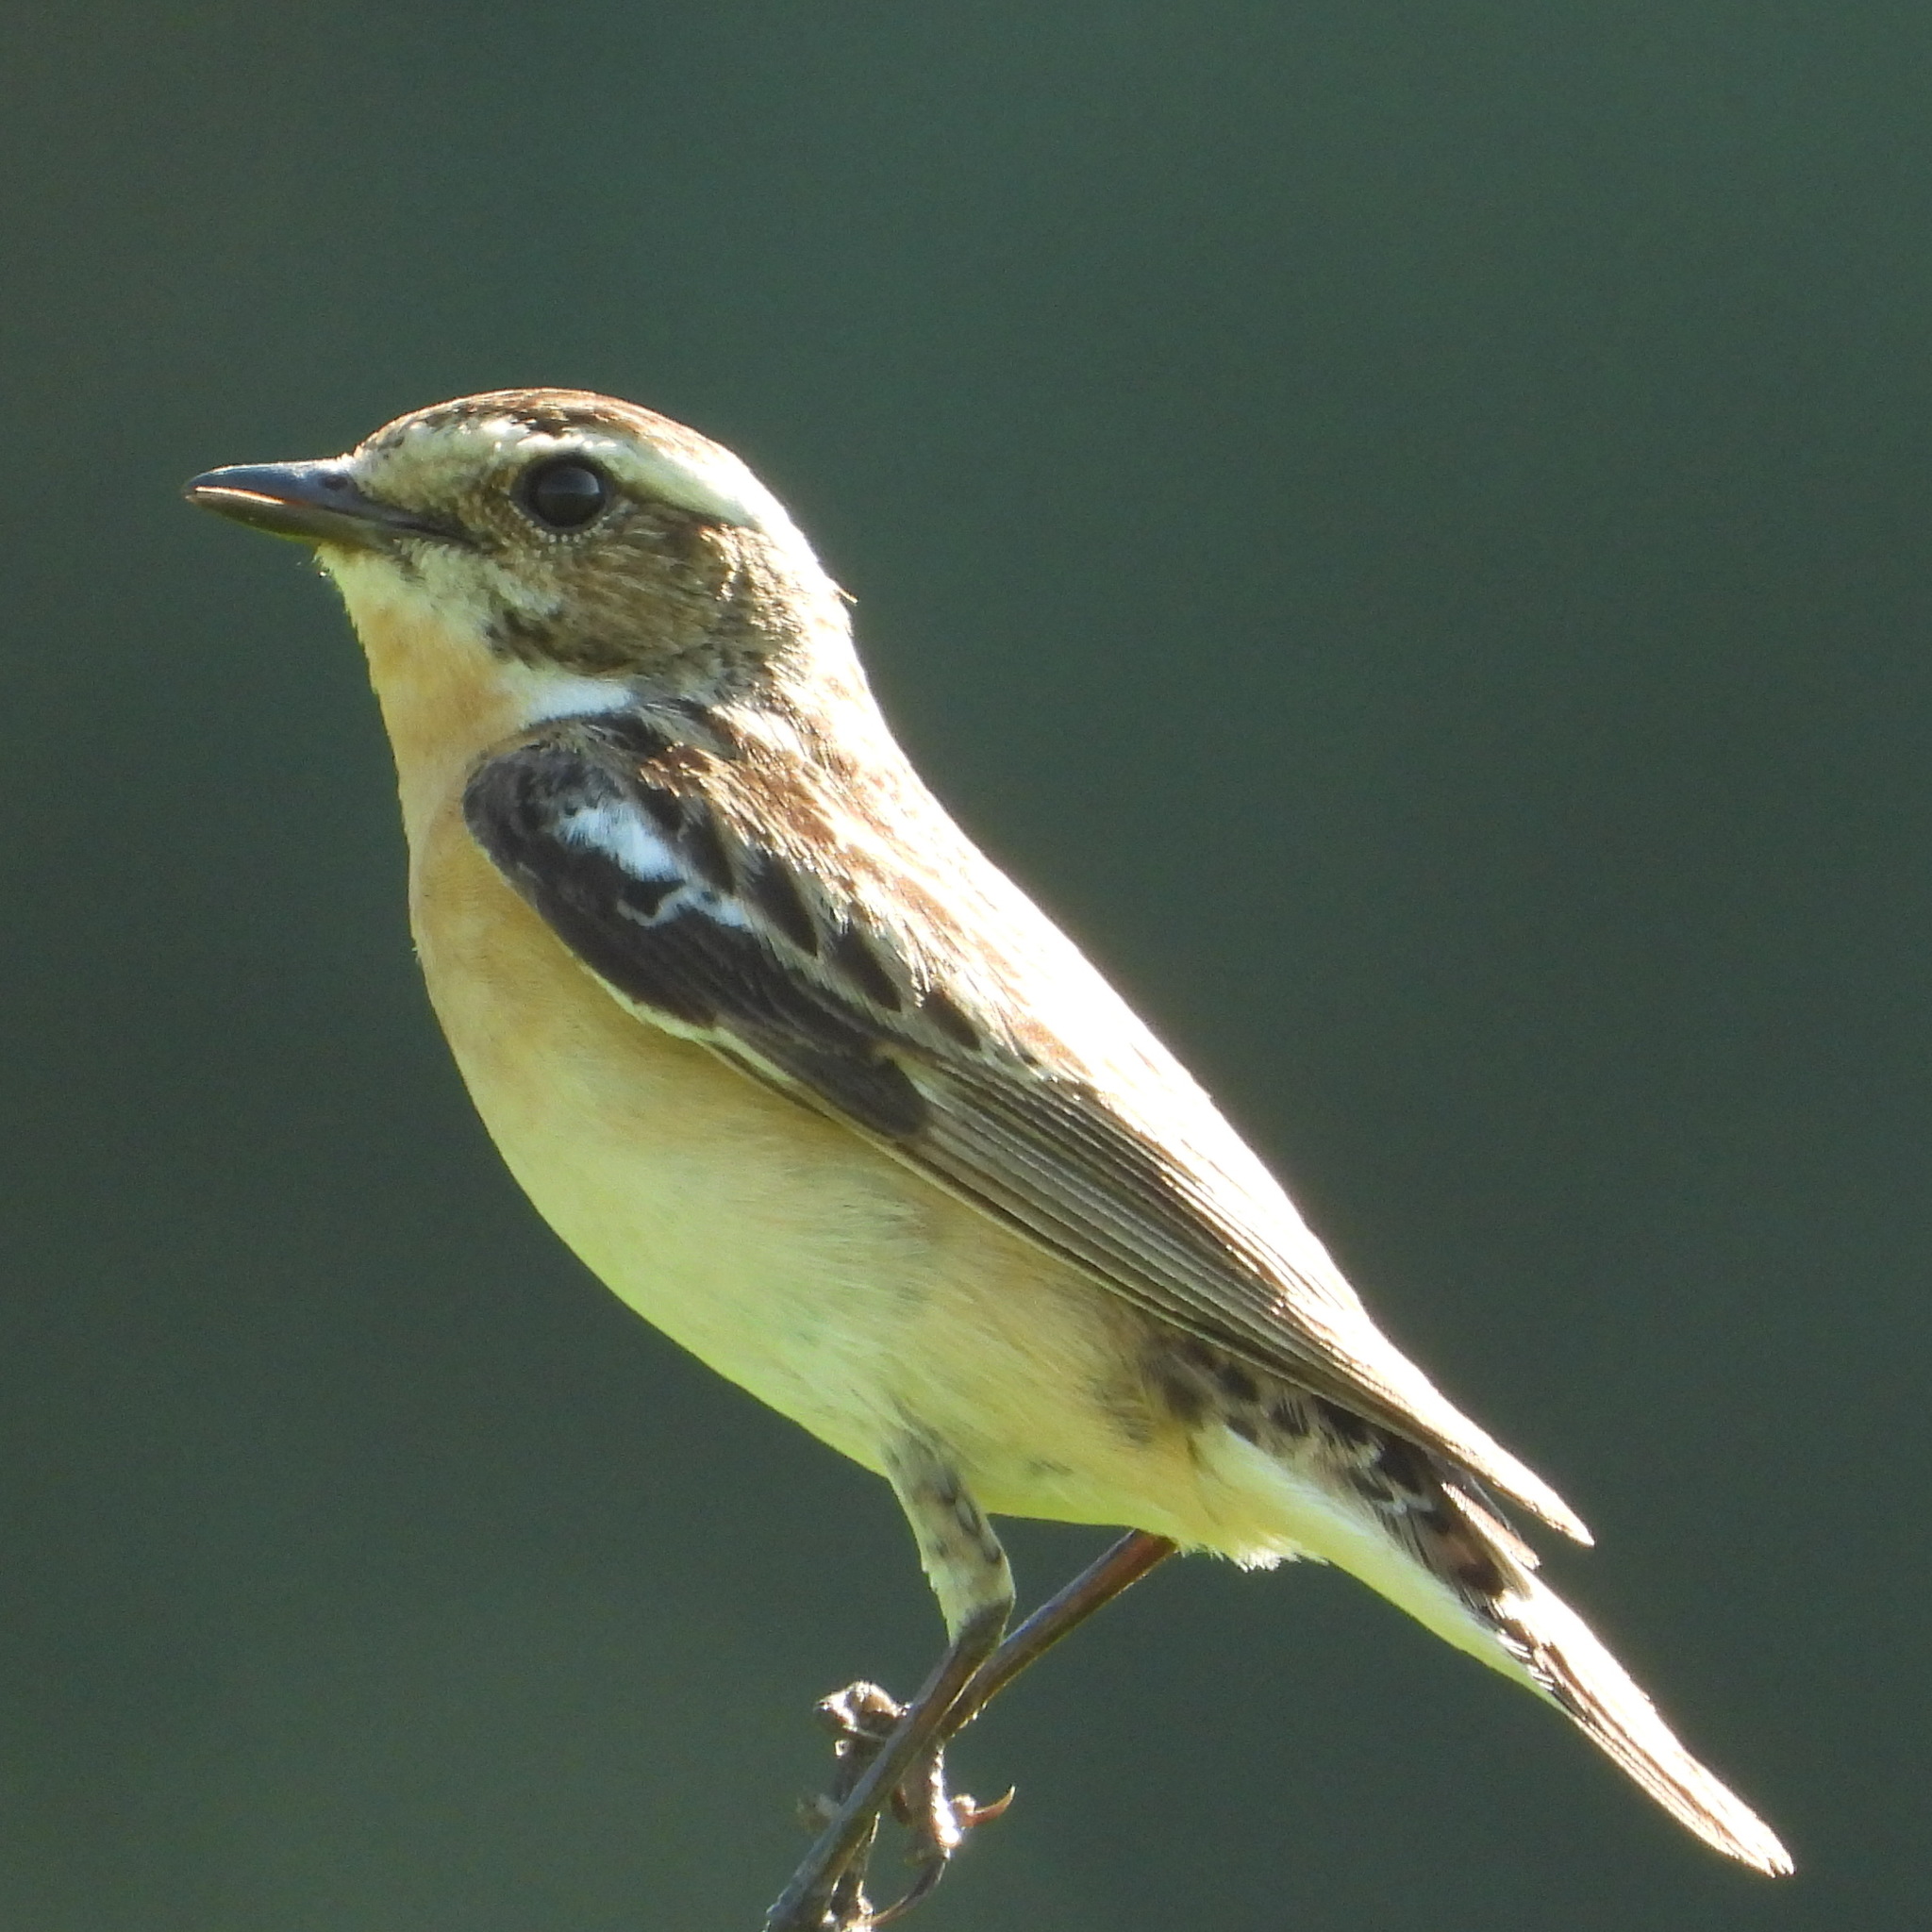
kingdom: Animalia
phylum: Chordata
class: Aves
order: Passeriformes
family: Muscicapidae
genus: Saxicola
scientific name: Saxicola rubetra
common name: Whinchat
